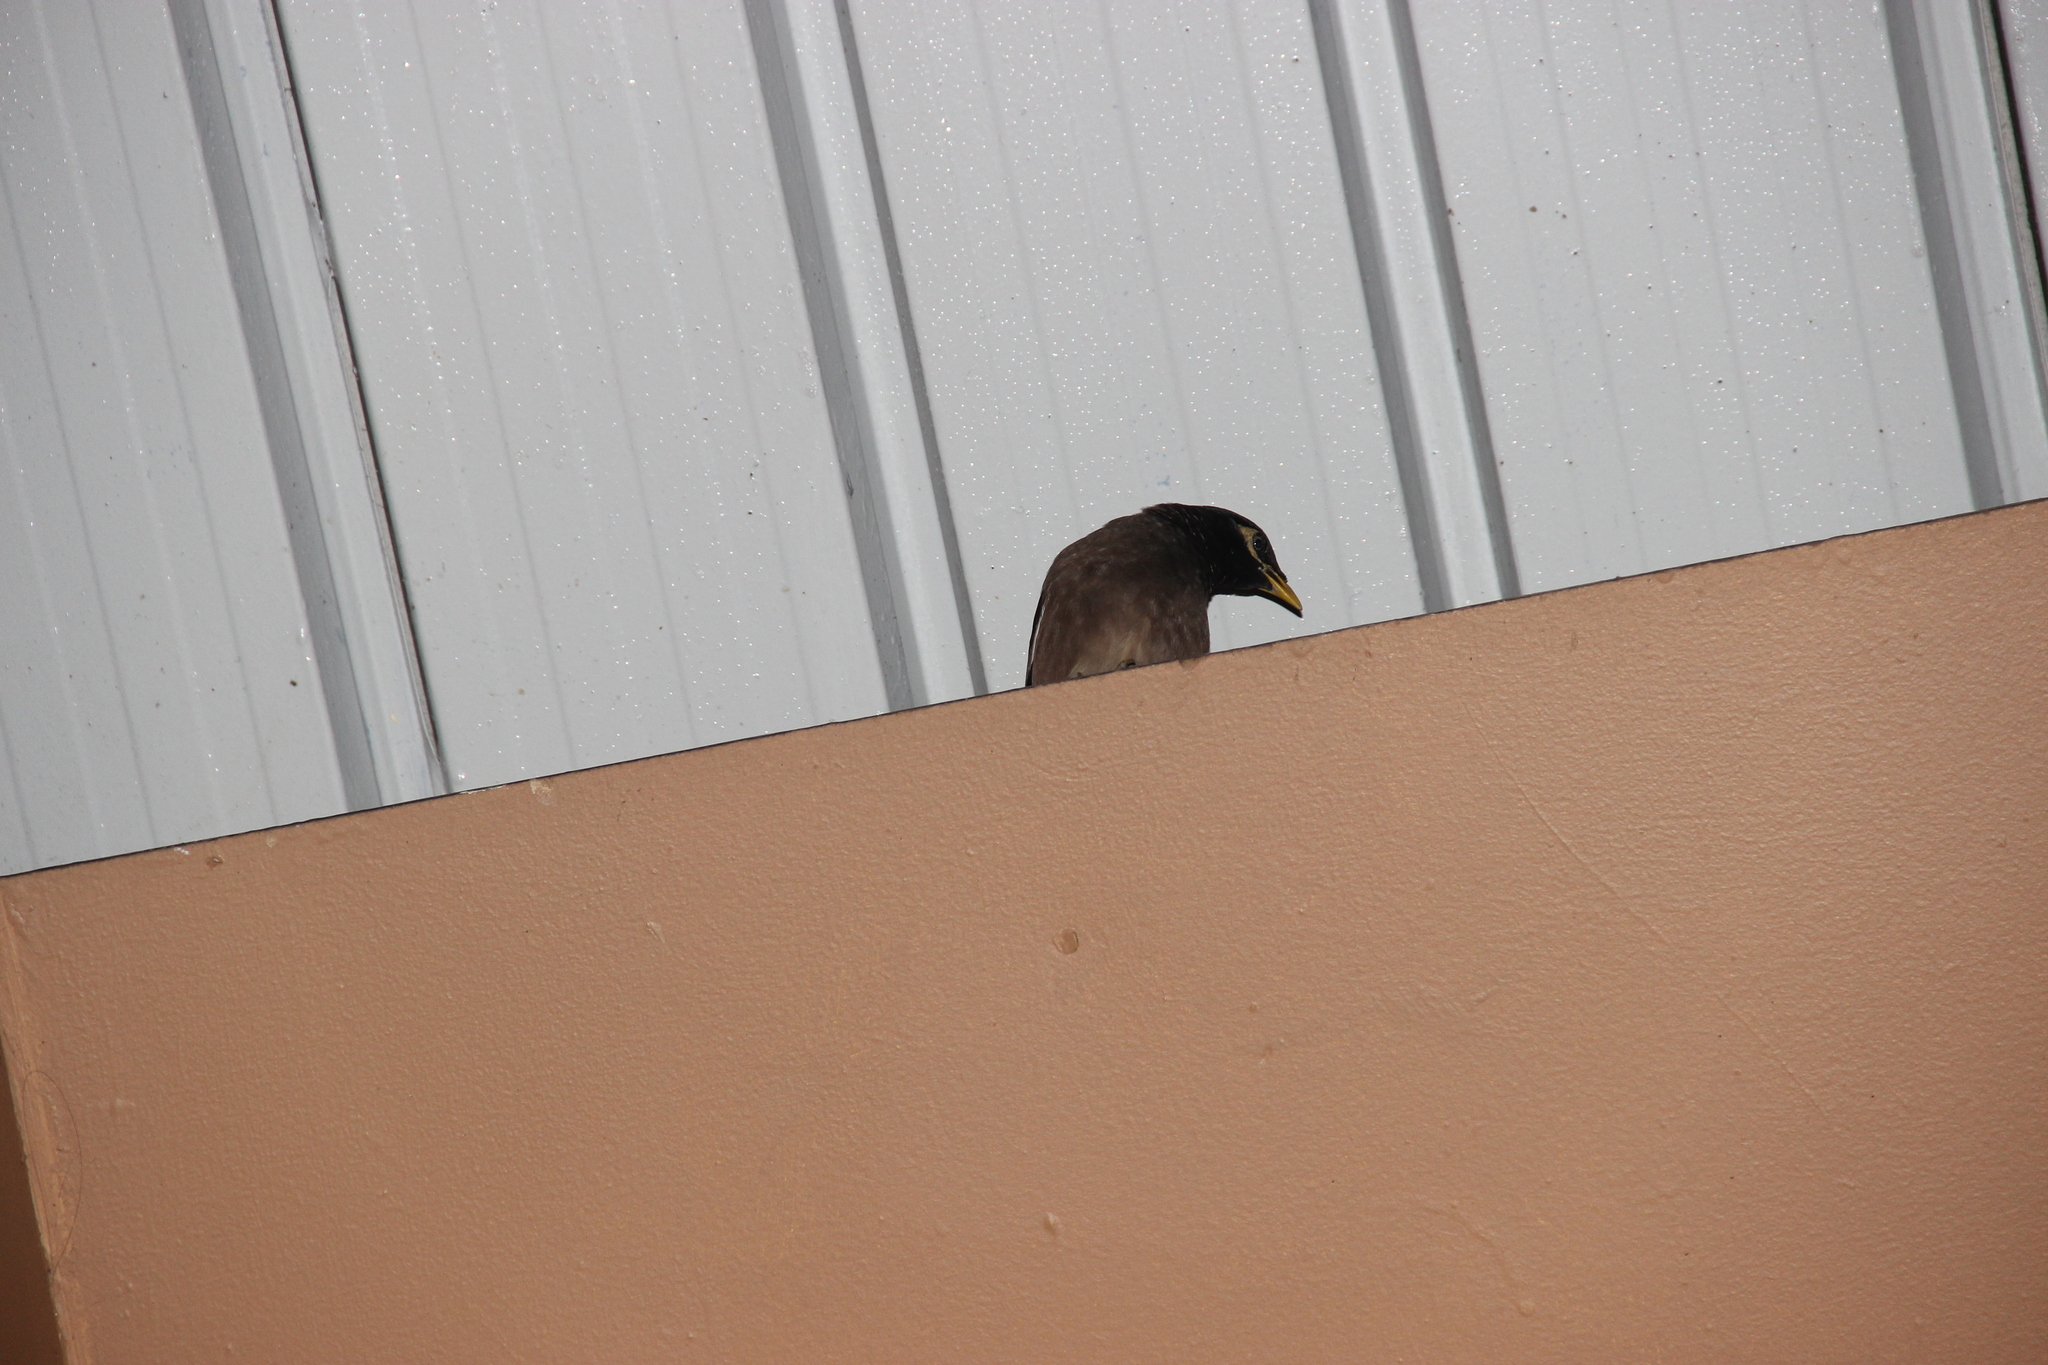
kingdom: Animalia
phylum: Chordata
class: Aves
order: Passeriformes
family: Sturnidae
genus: Acridotheres
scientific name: Acridotheres tristis
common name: Common myna
